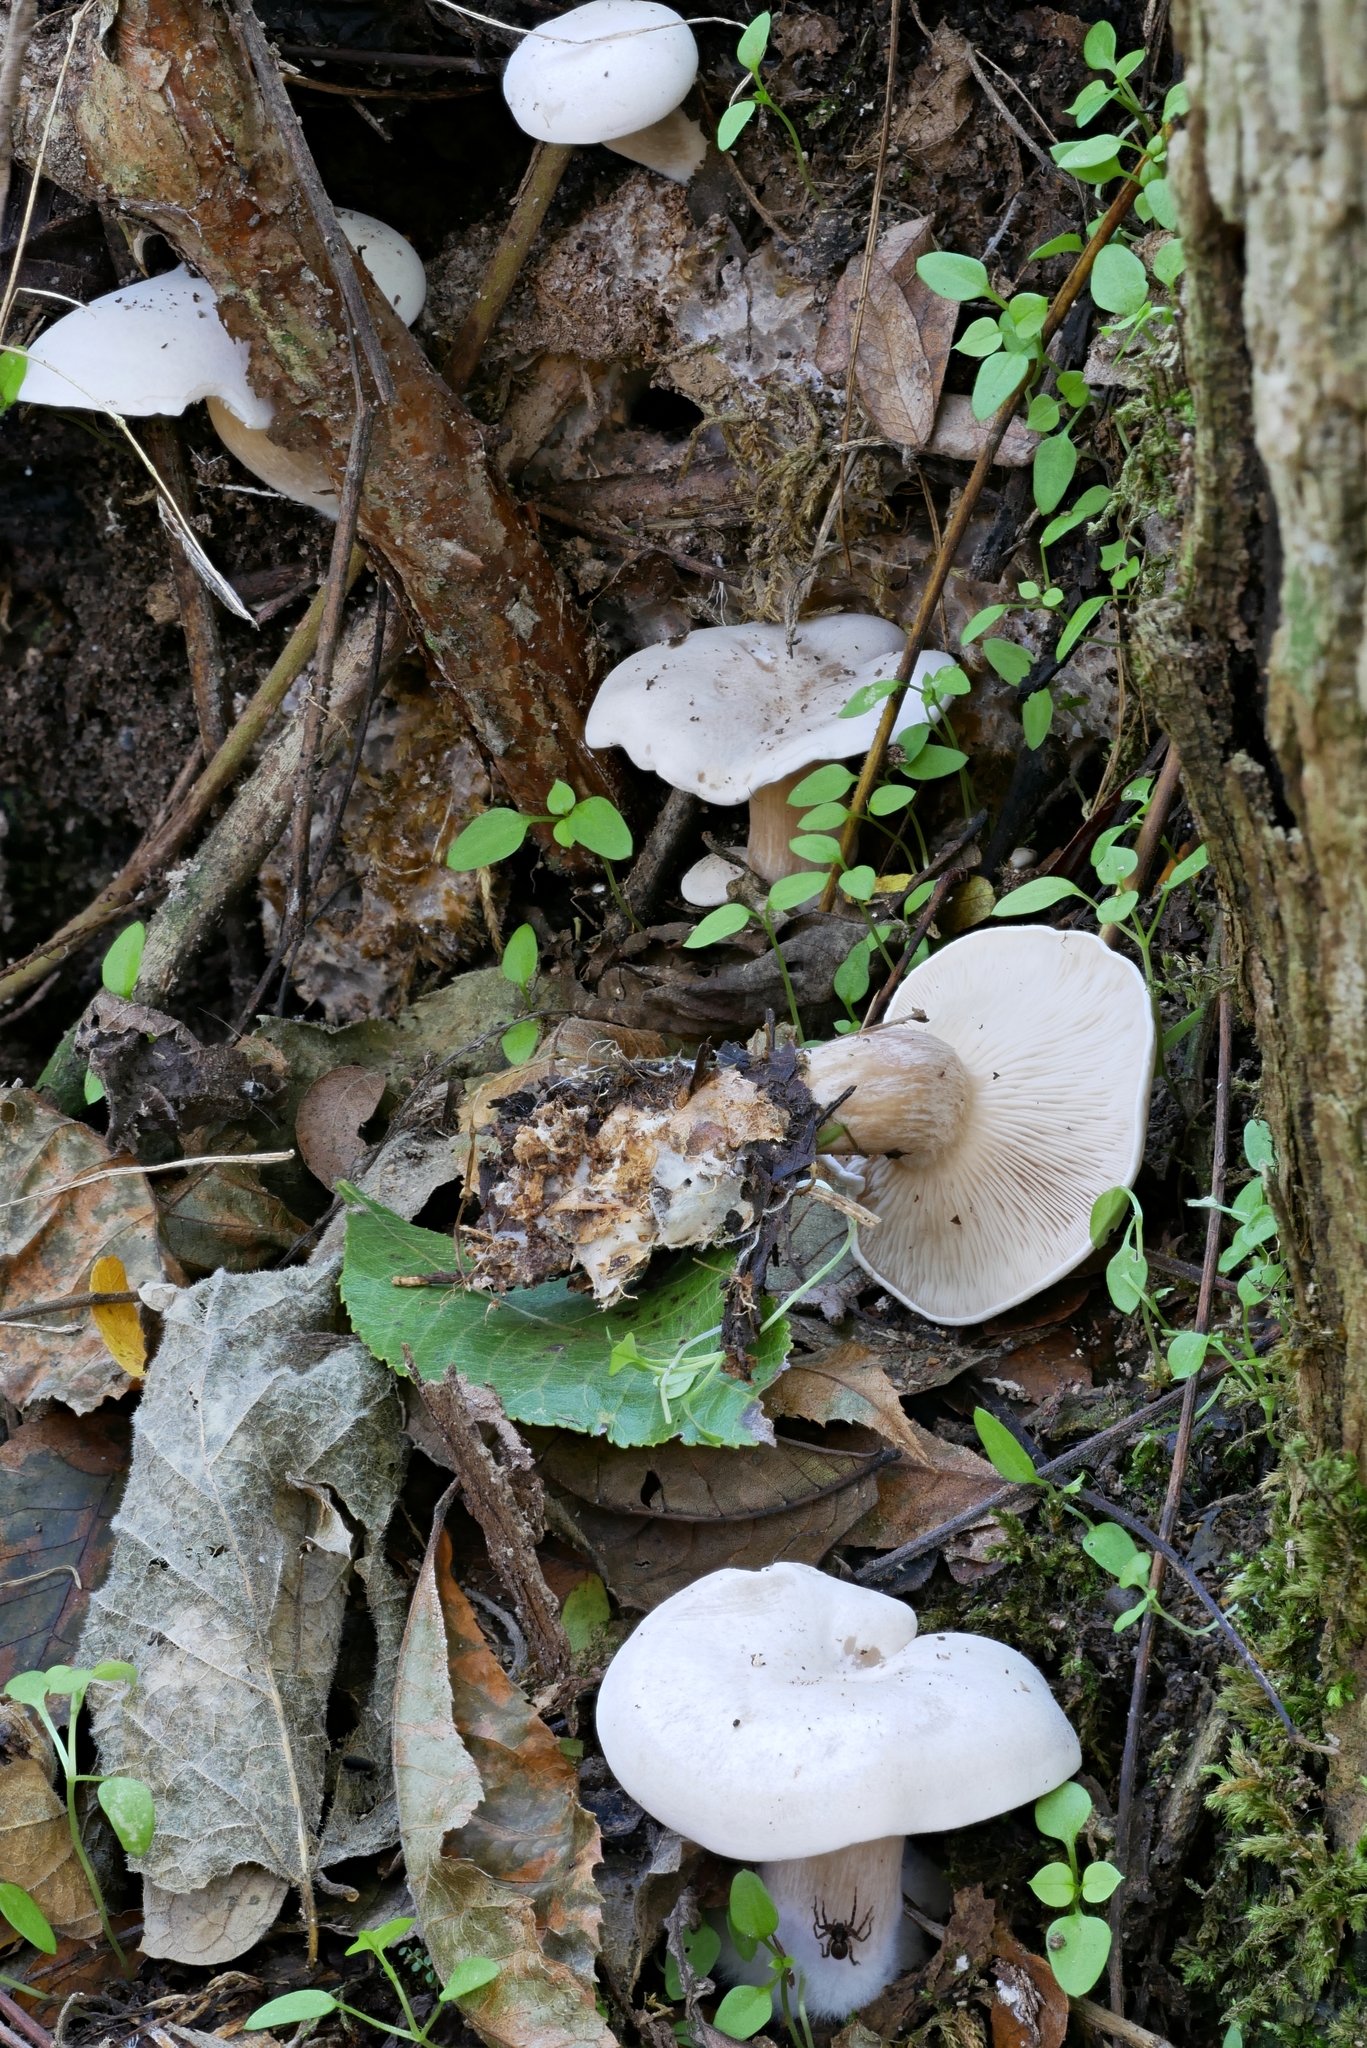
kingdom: Fungi
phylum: Basidiomycota
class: Agaricomycetes
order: Agaricales
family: Tricholomataceae
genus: Collybia
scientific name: Collybia phylladophila
